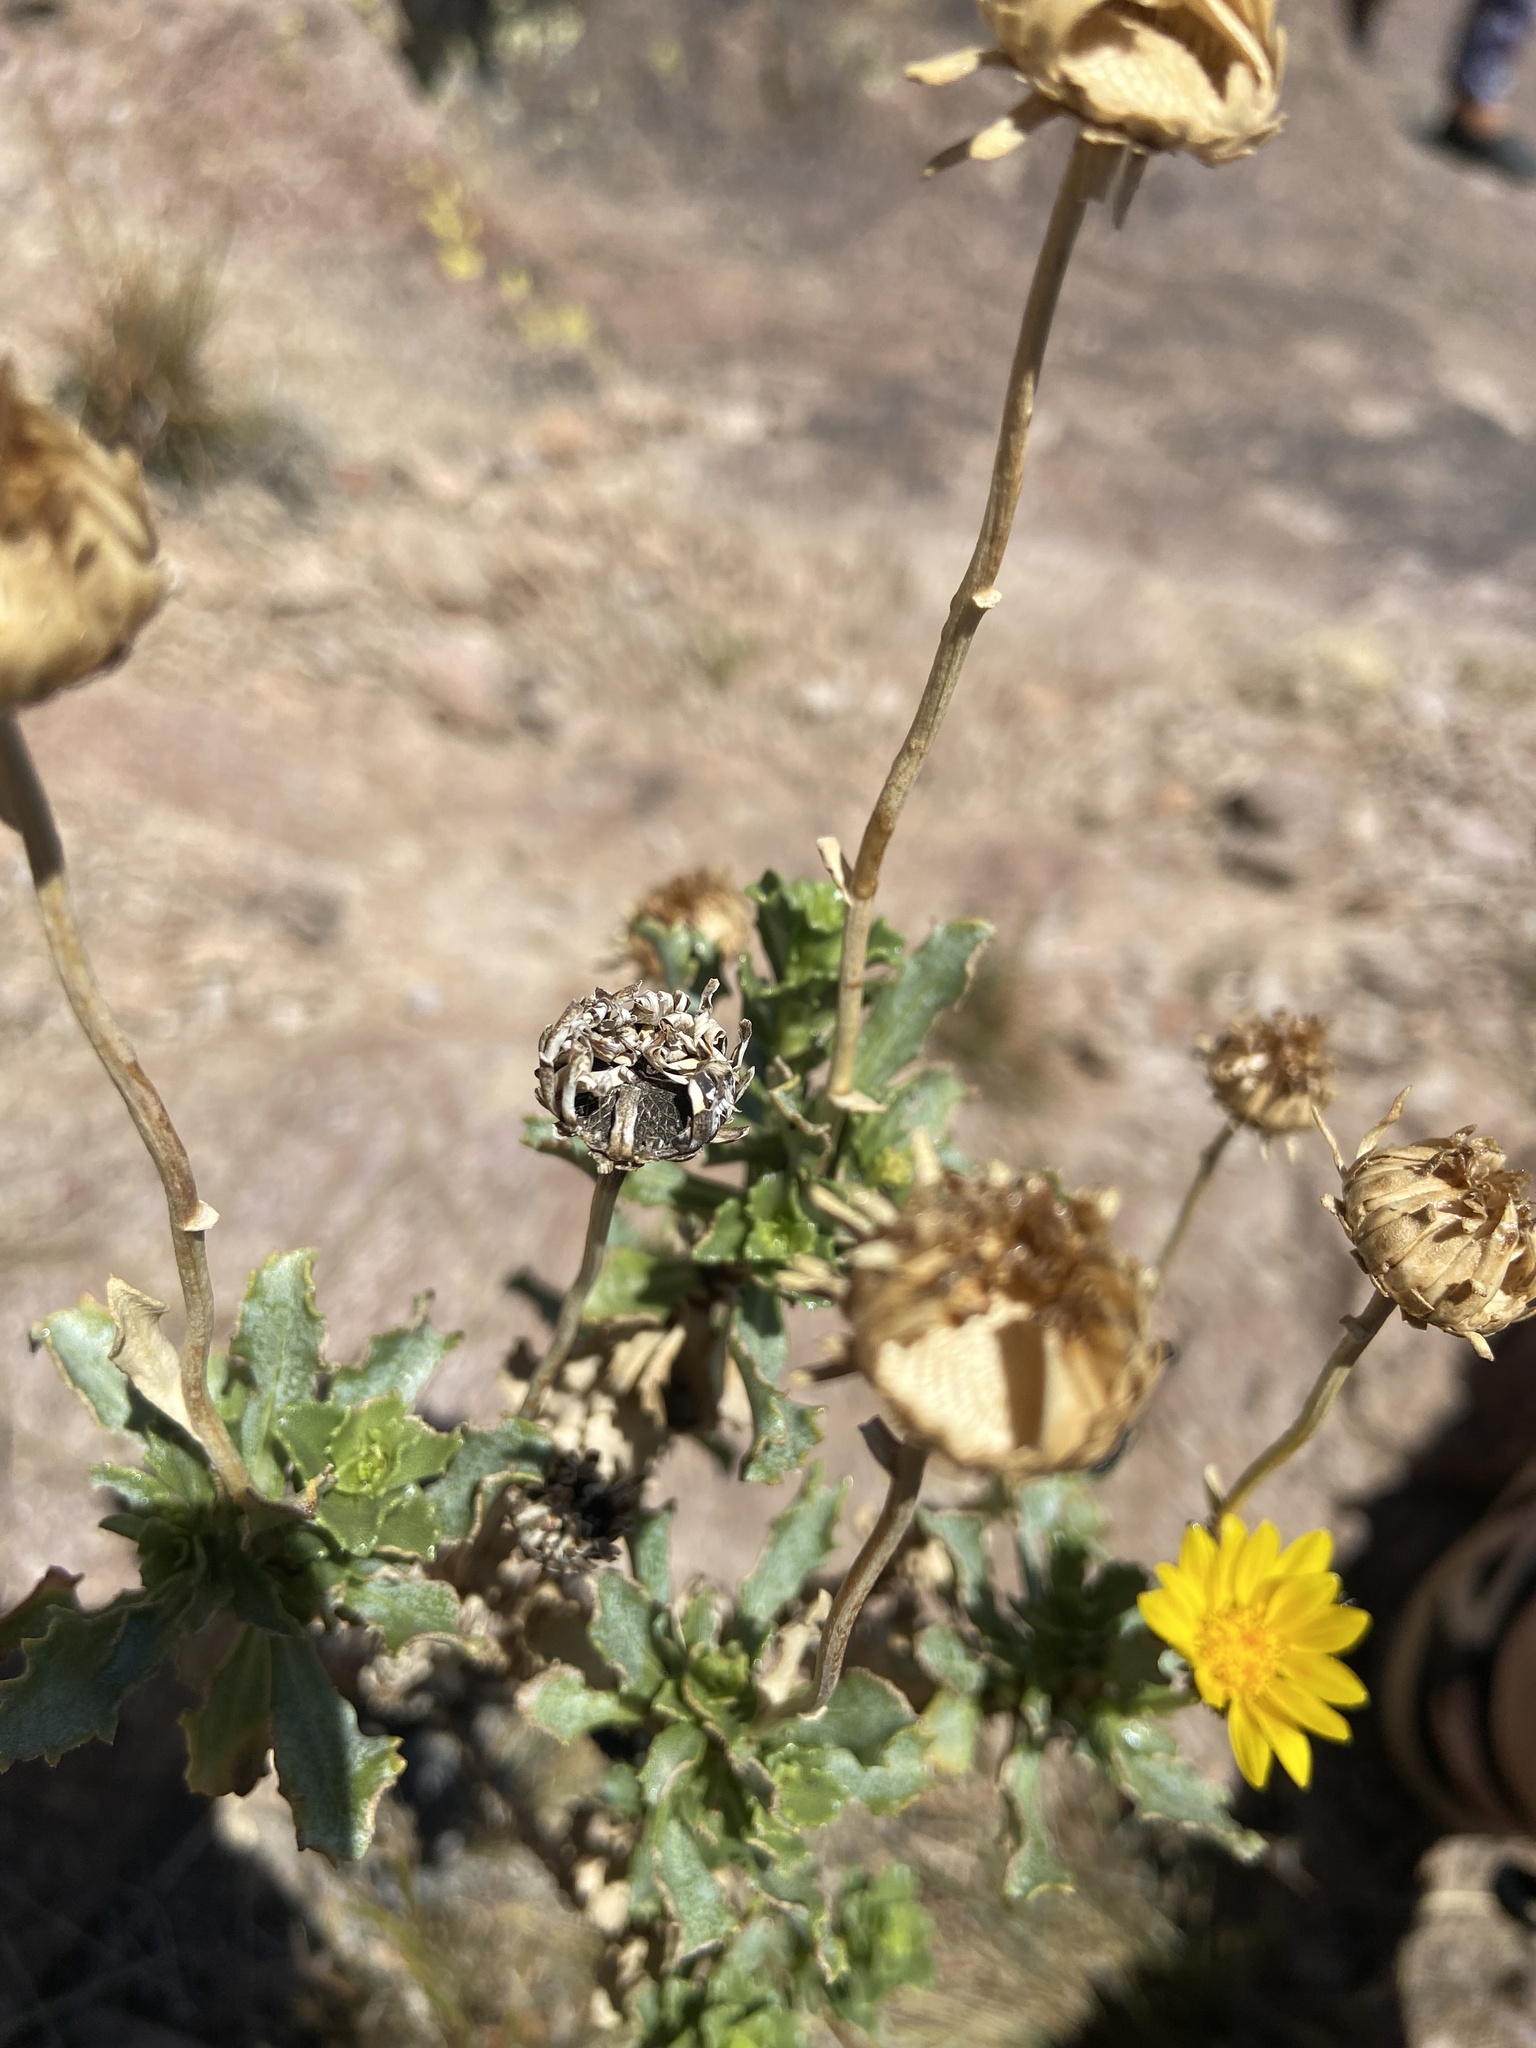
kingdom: Plantae
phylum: Tracheophyta
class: Magnoliopsida
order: Asterales
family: Asteraceae
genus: Grindelia
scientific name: Grindelia chiloensis
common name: Shrubby gumweed
